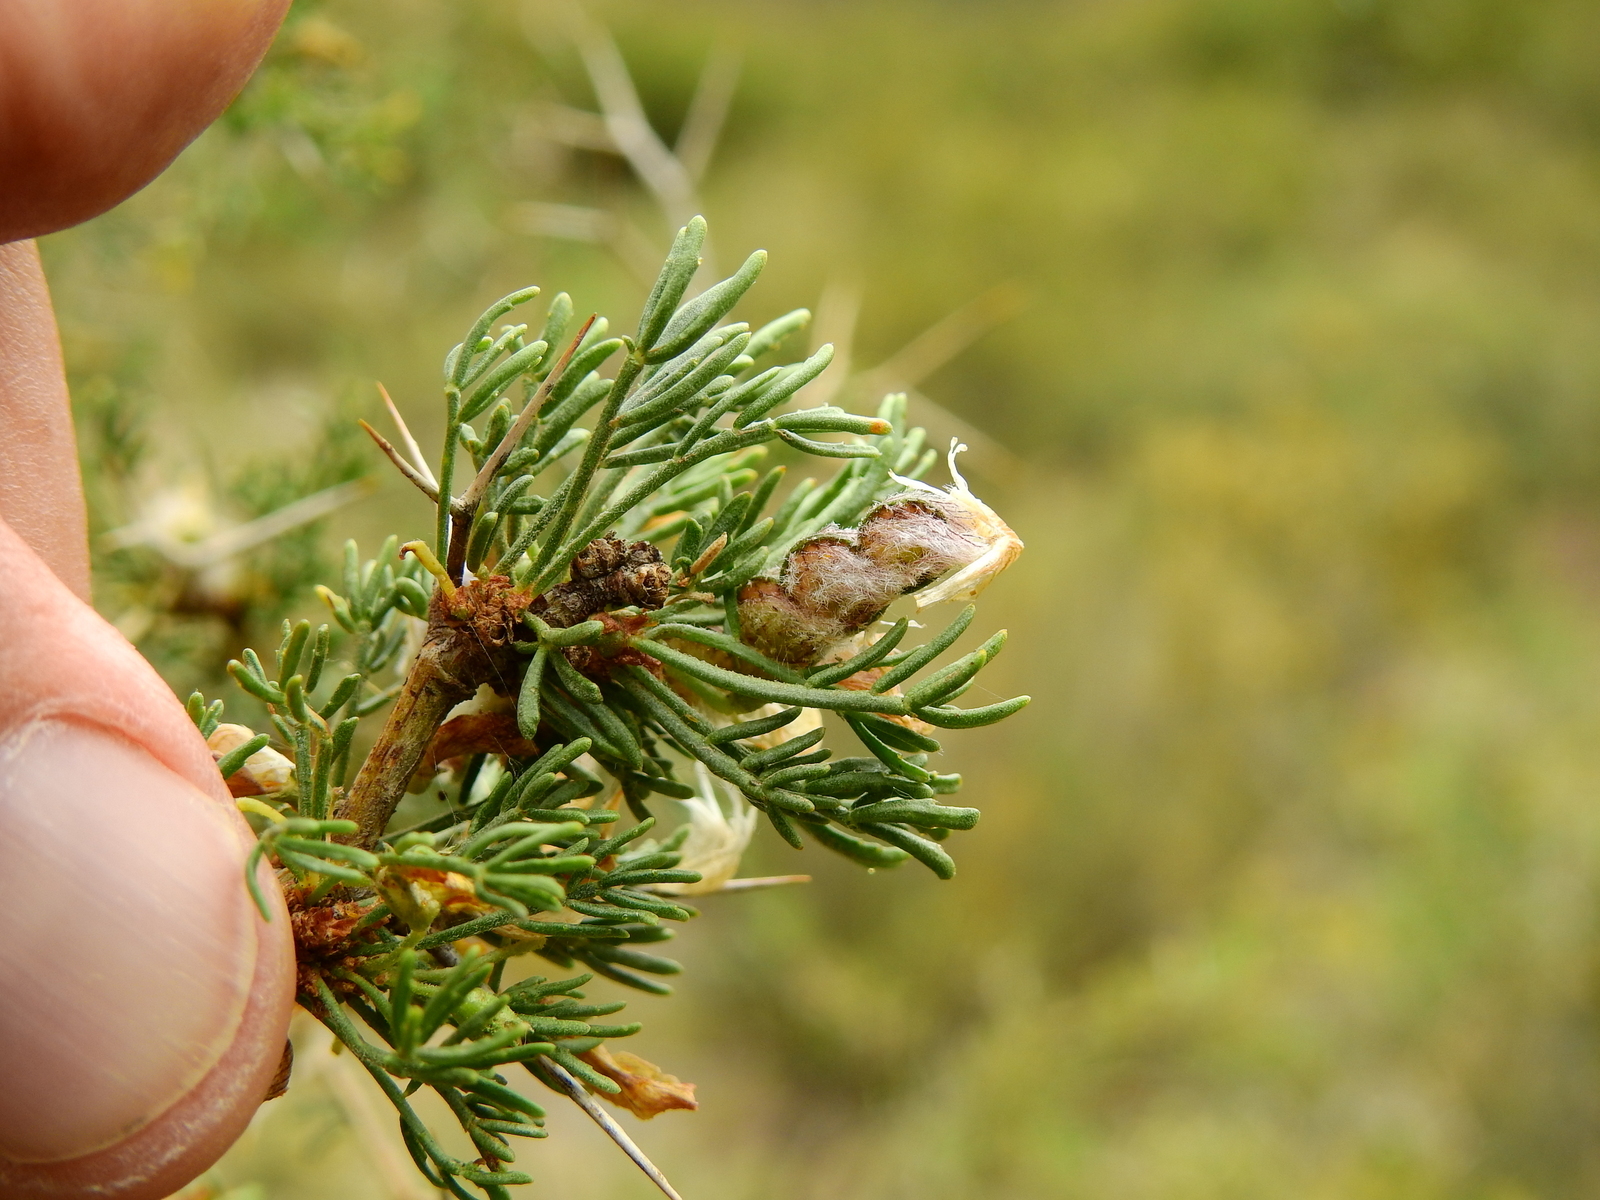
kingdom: Plantae
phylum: Tracheophyta
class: Magnoliopsida
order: Fabales
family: Fabaceae
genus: Adesmia
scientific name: Adesmia pinifolia
